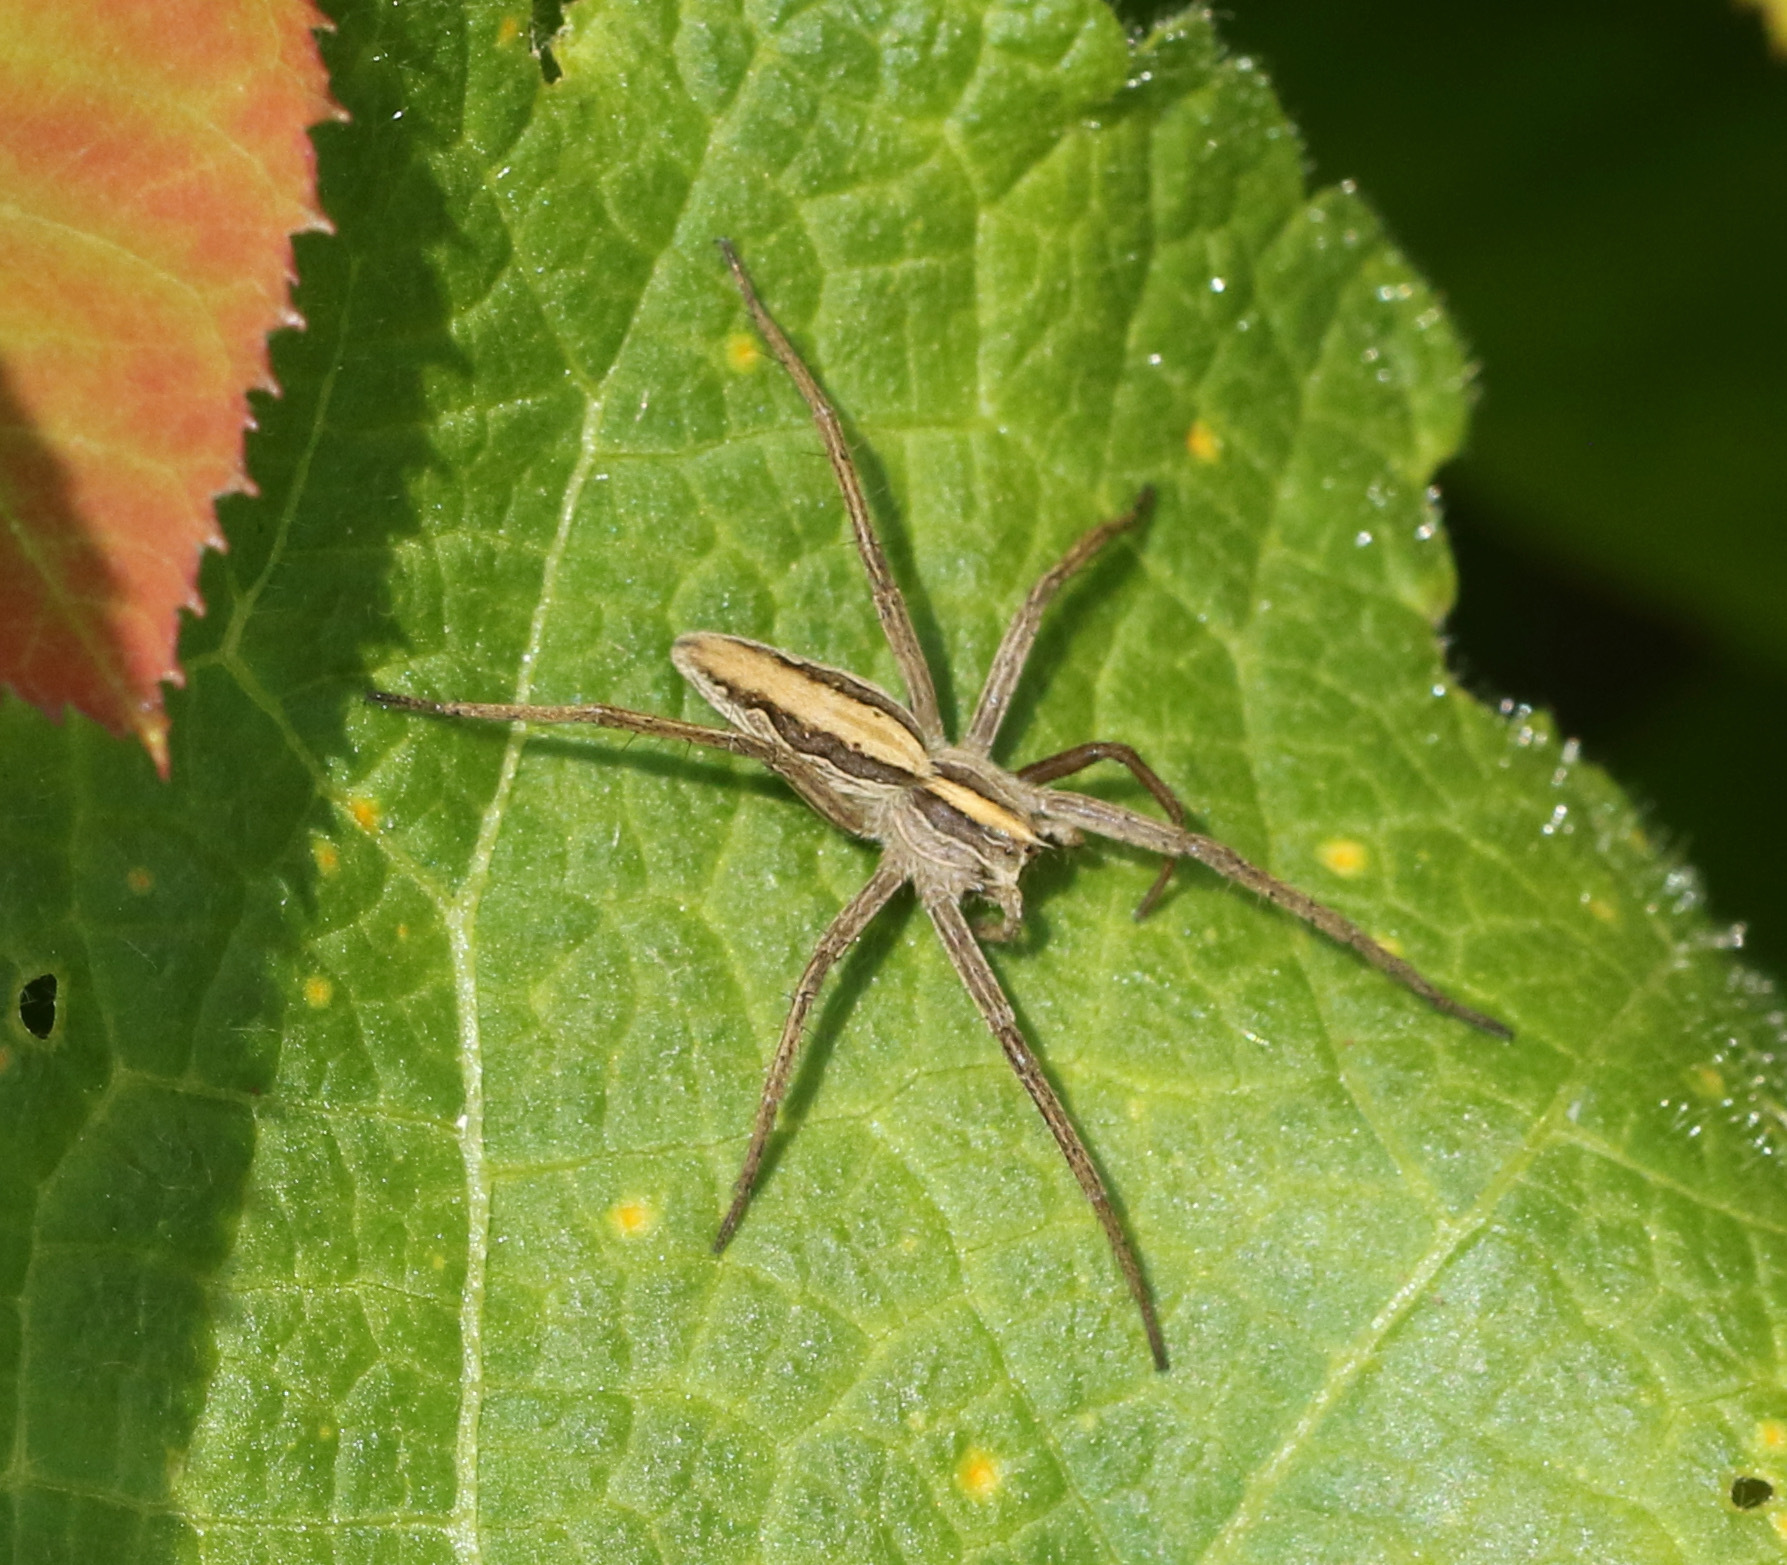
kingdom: Animalia
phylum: Arthropoda
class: Arachnida
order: Araneae
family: Pisauridae
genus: Pisaura
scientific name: Pisaura mirabilis
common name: Tent spider
